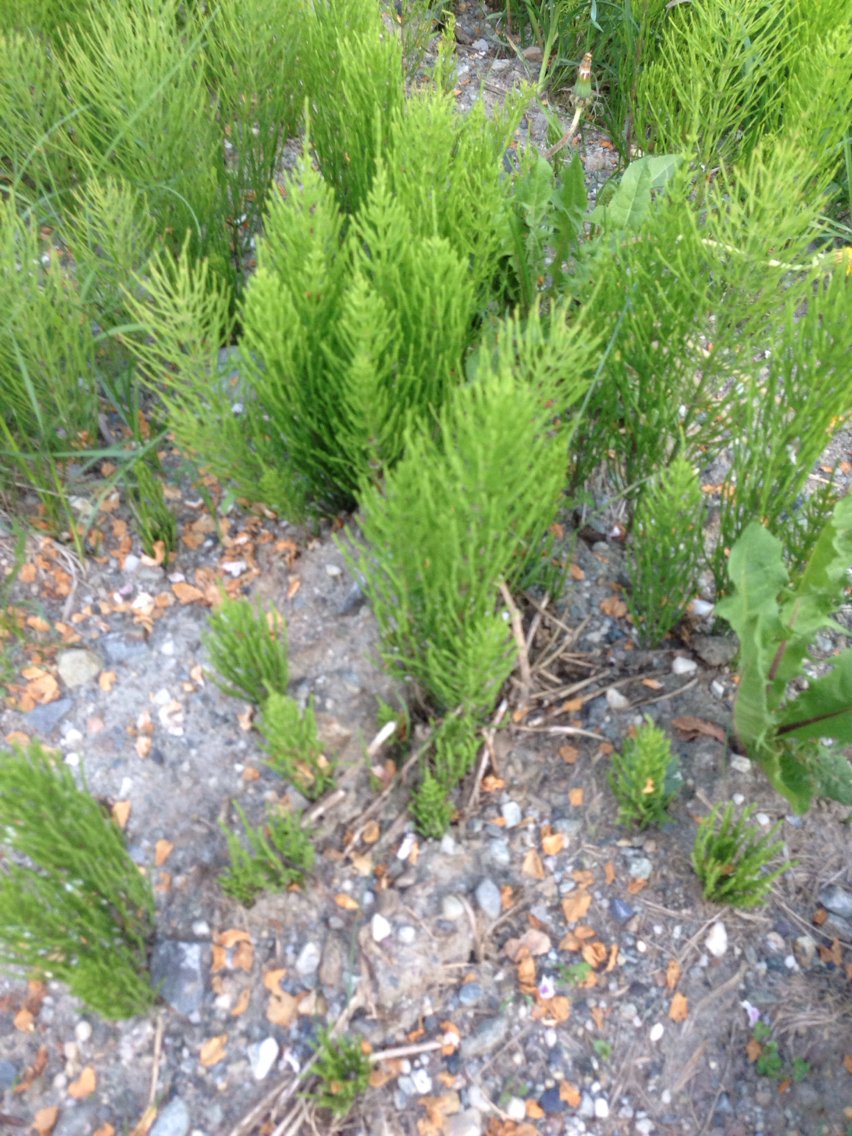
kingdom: Plantae
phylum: Tracheophyta
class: Polypodiopsida
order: Equisetales
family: Equisetaceae
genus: Equisetum
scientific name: Equisetum arvense
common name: Field horsetail
